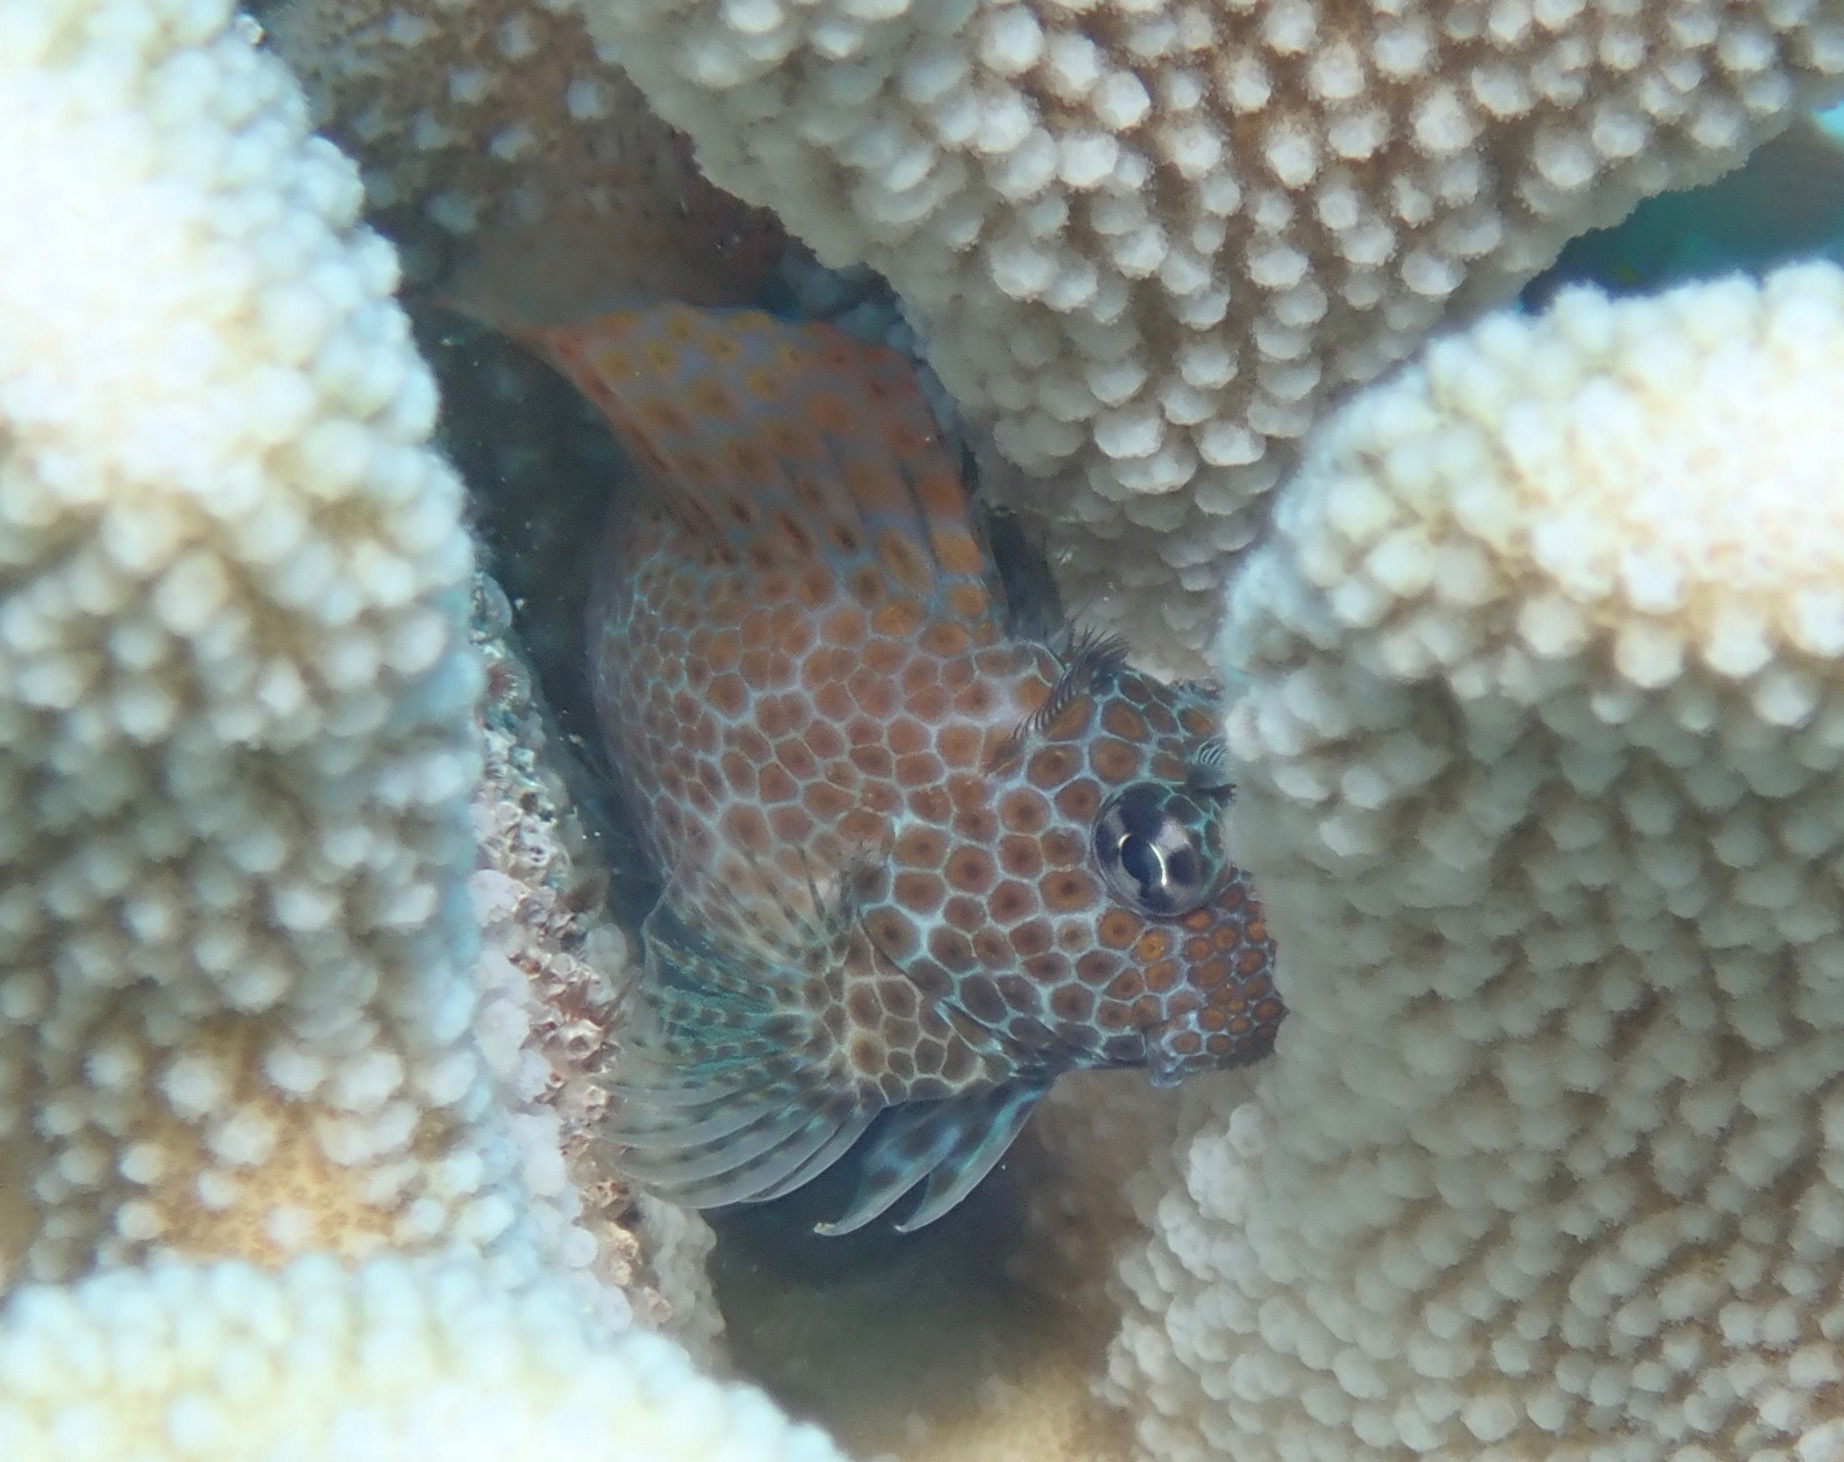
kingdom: Animalia
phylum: Chordata
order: Perciformes
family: Blenniidae
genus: Exallias
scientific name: Exallias brevis
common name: Leopard blenny
